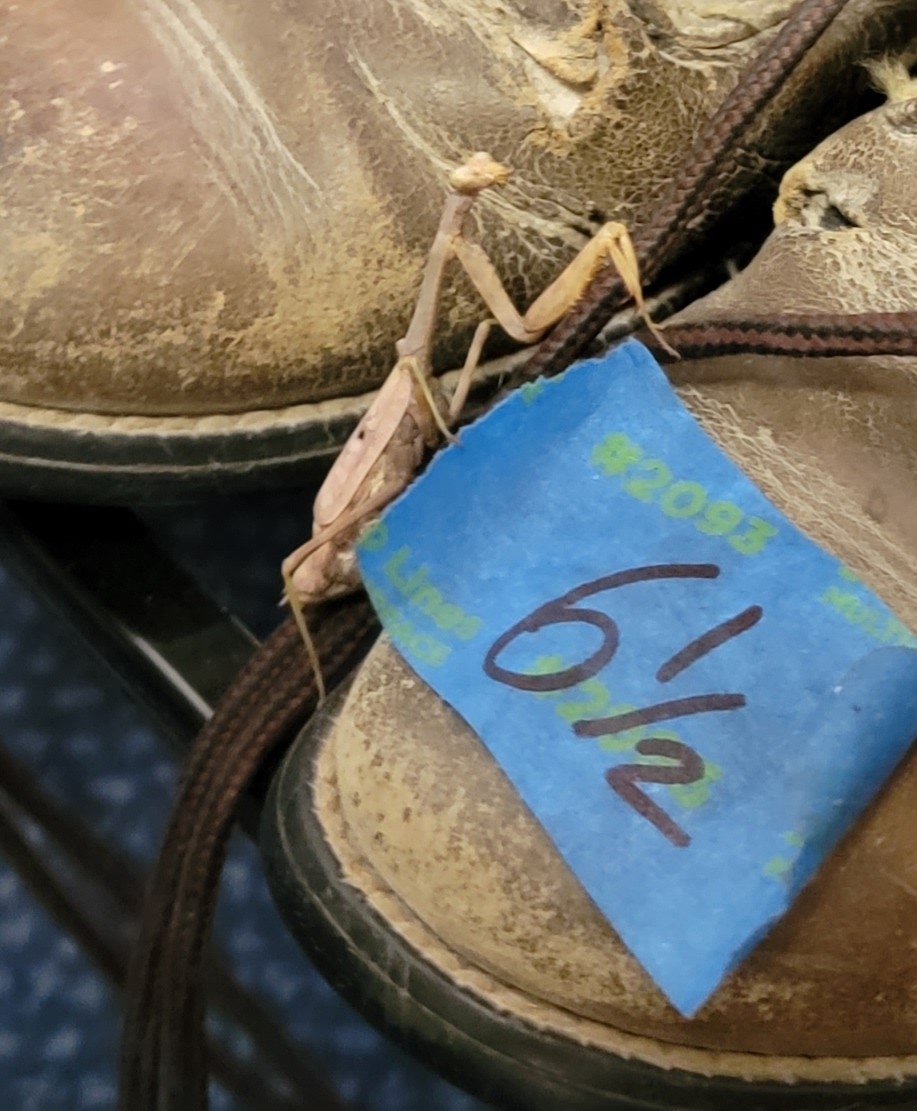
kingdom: Animalia
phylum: Arthropoda
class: Insecta
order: Mantodea
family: Mantidae
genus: Stagmomantis
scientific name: Stagmomantis carolina
